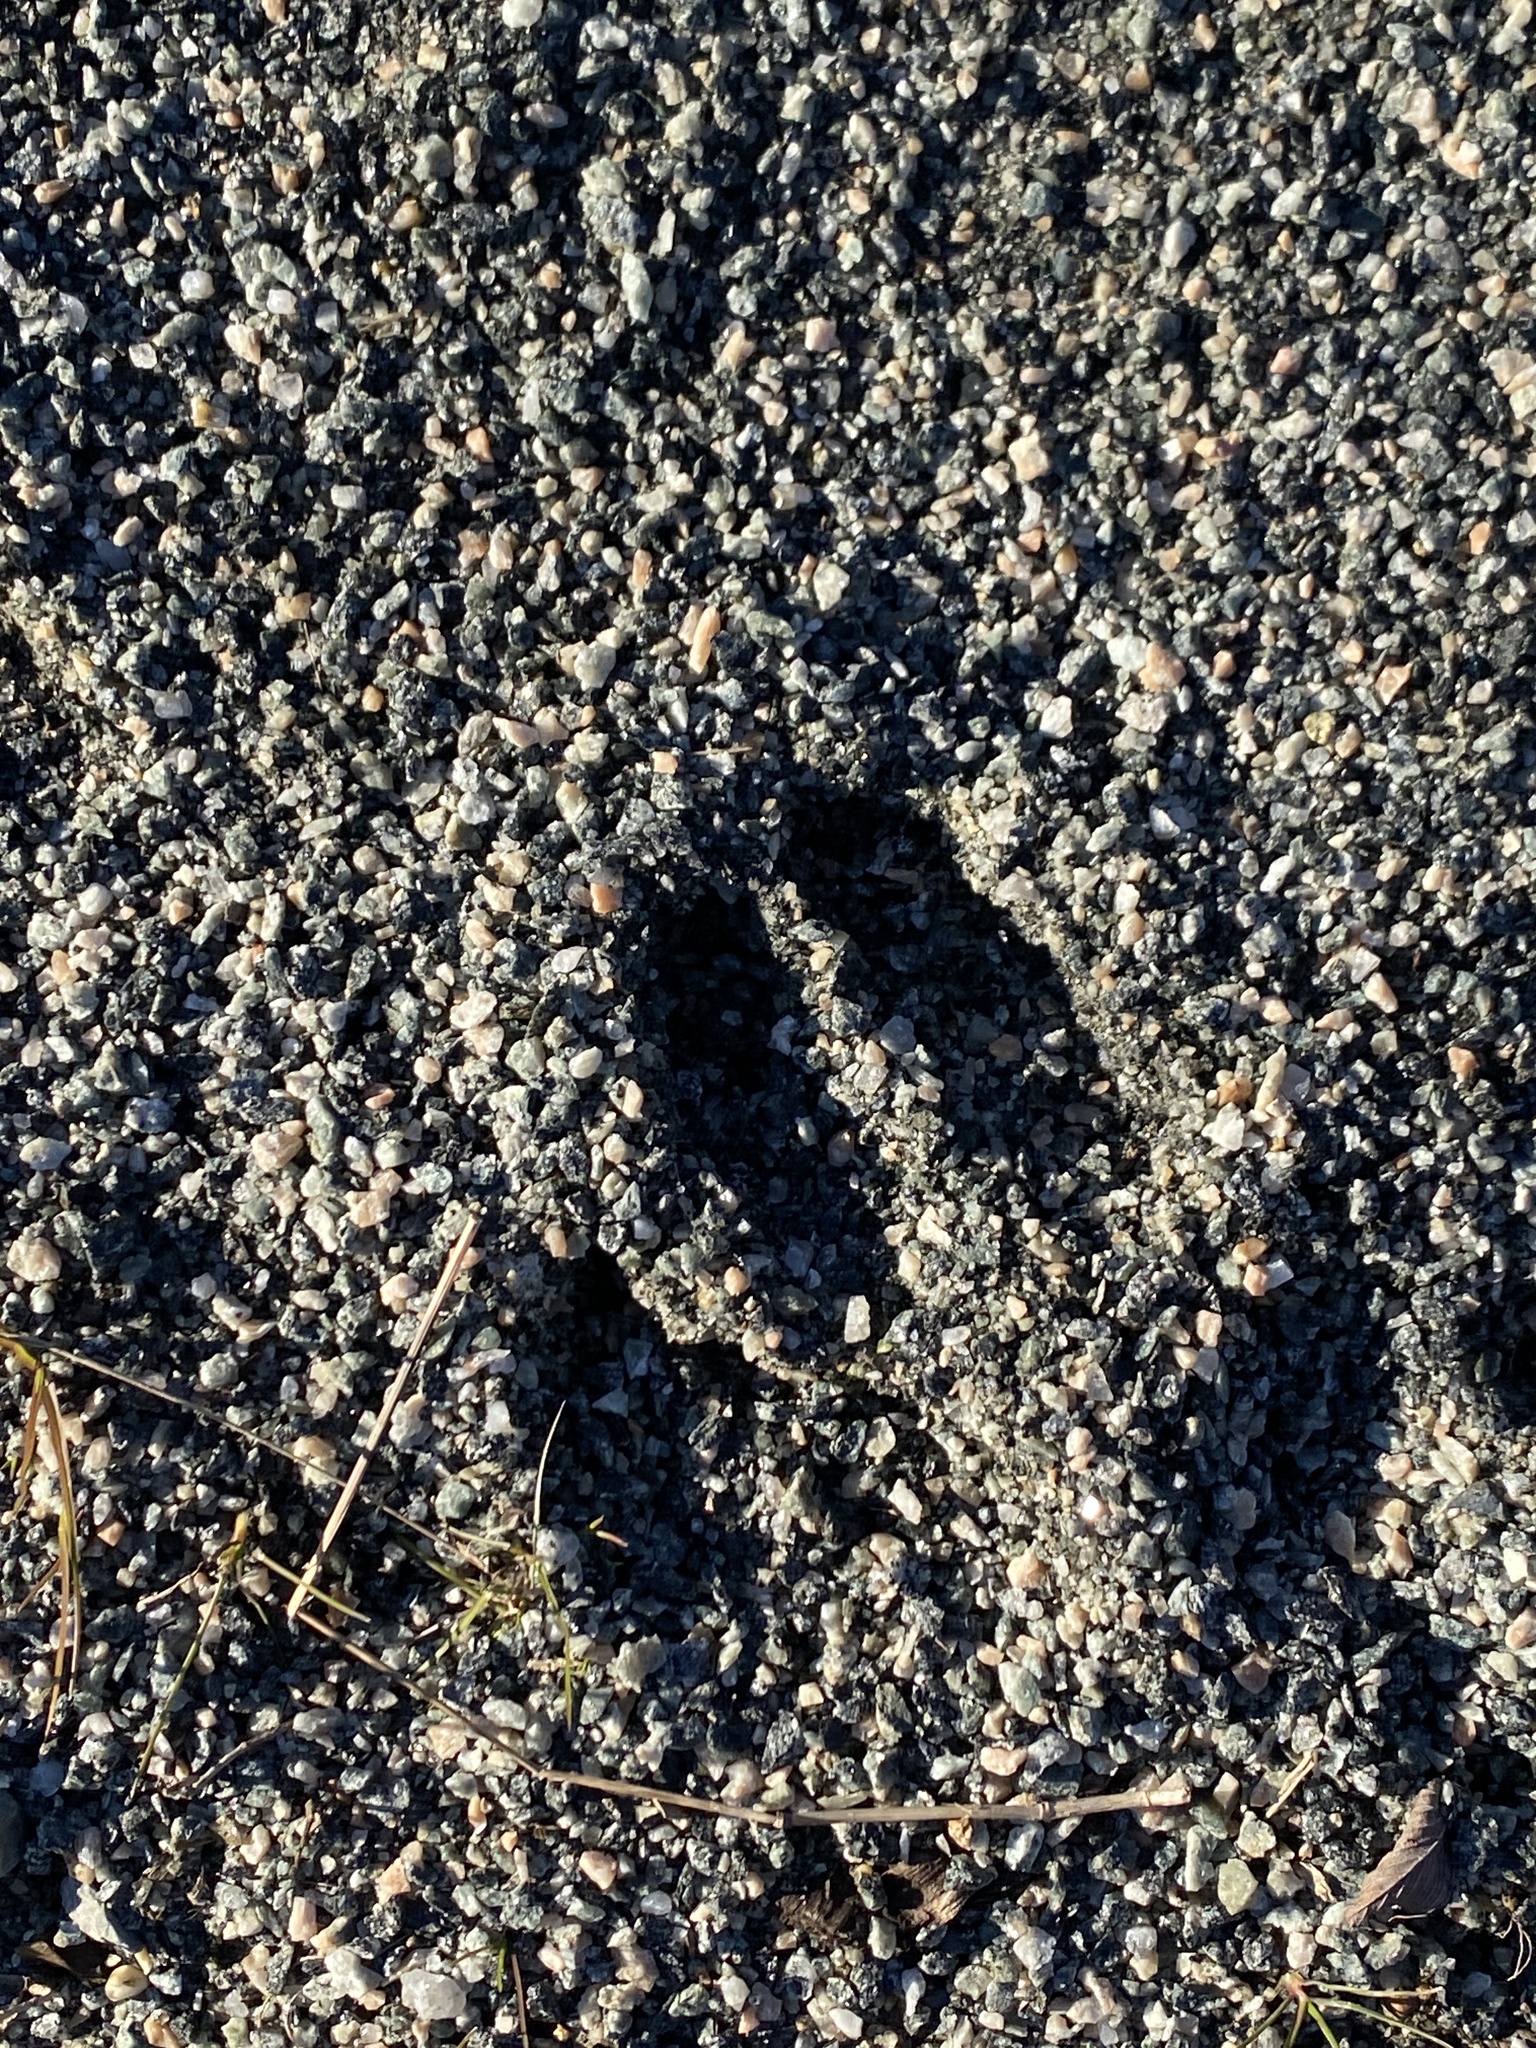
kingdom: Animalia
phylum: Chordata
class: Mammalia
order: Artiodactyla
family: Cervidae
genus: Odocoileus
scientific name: Odocoileus virginianus
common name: White-tailed deer
